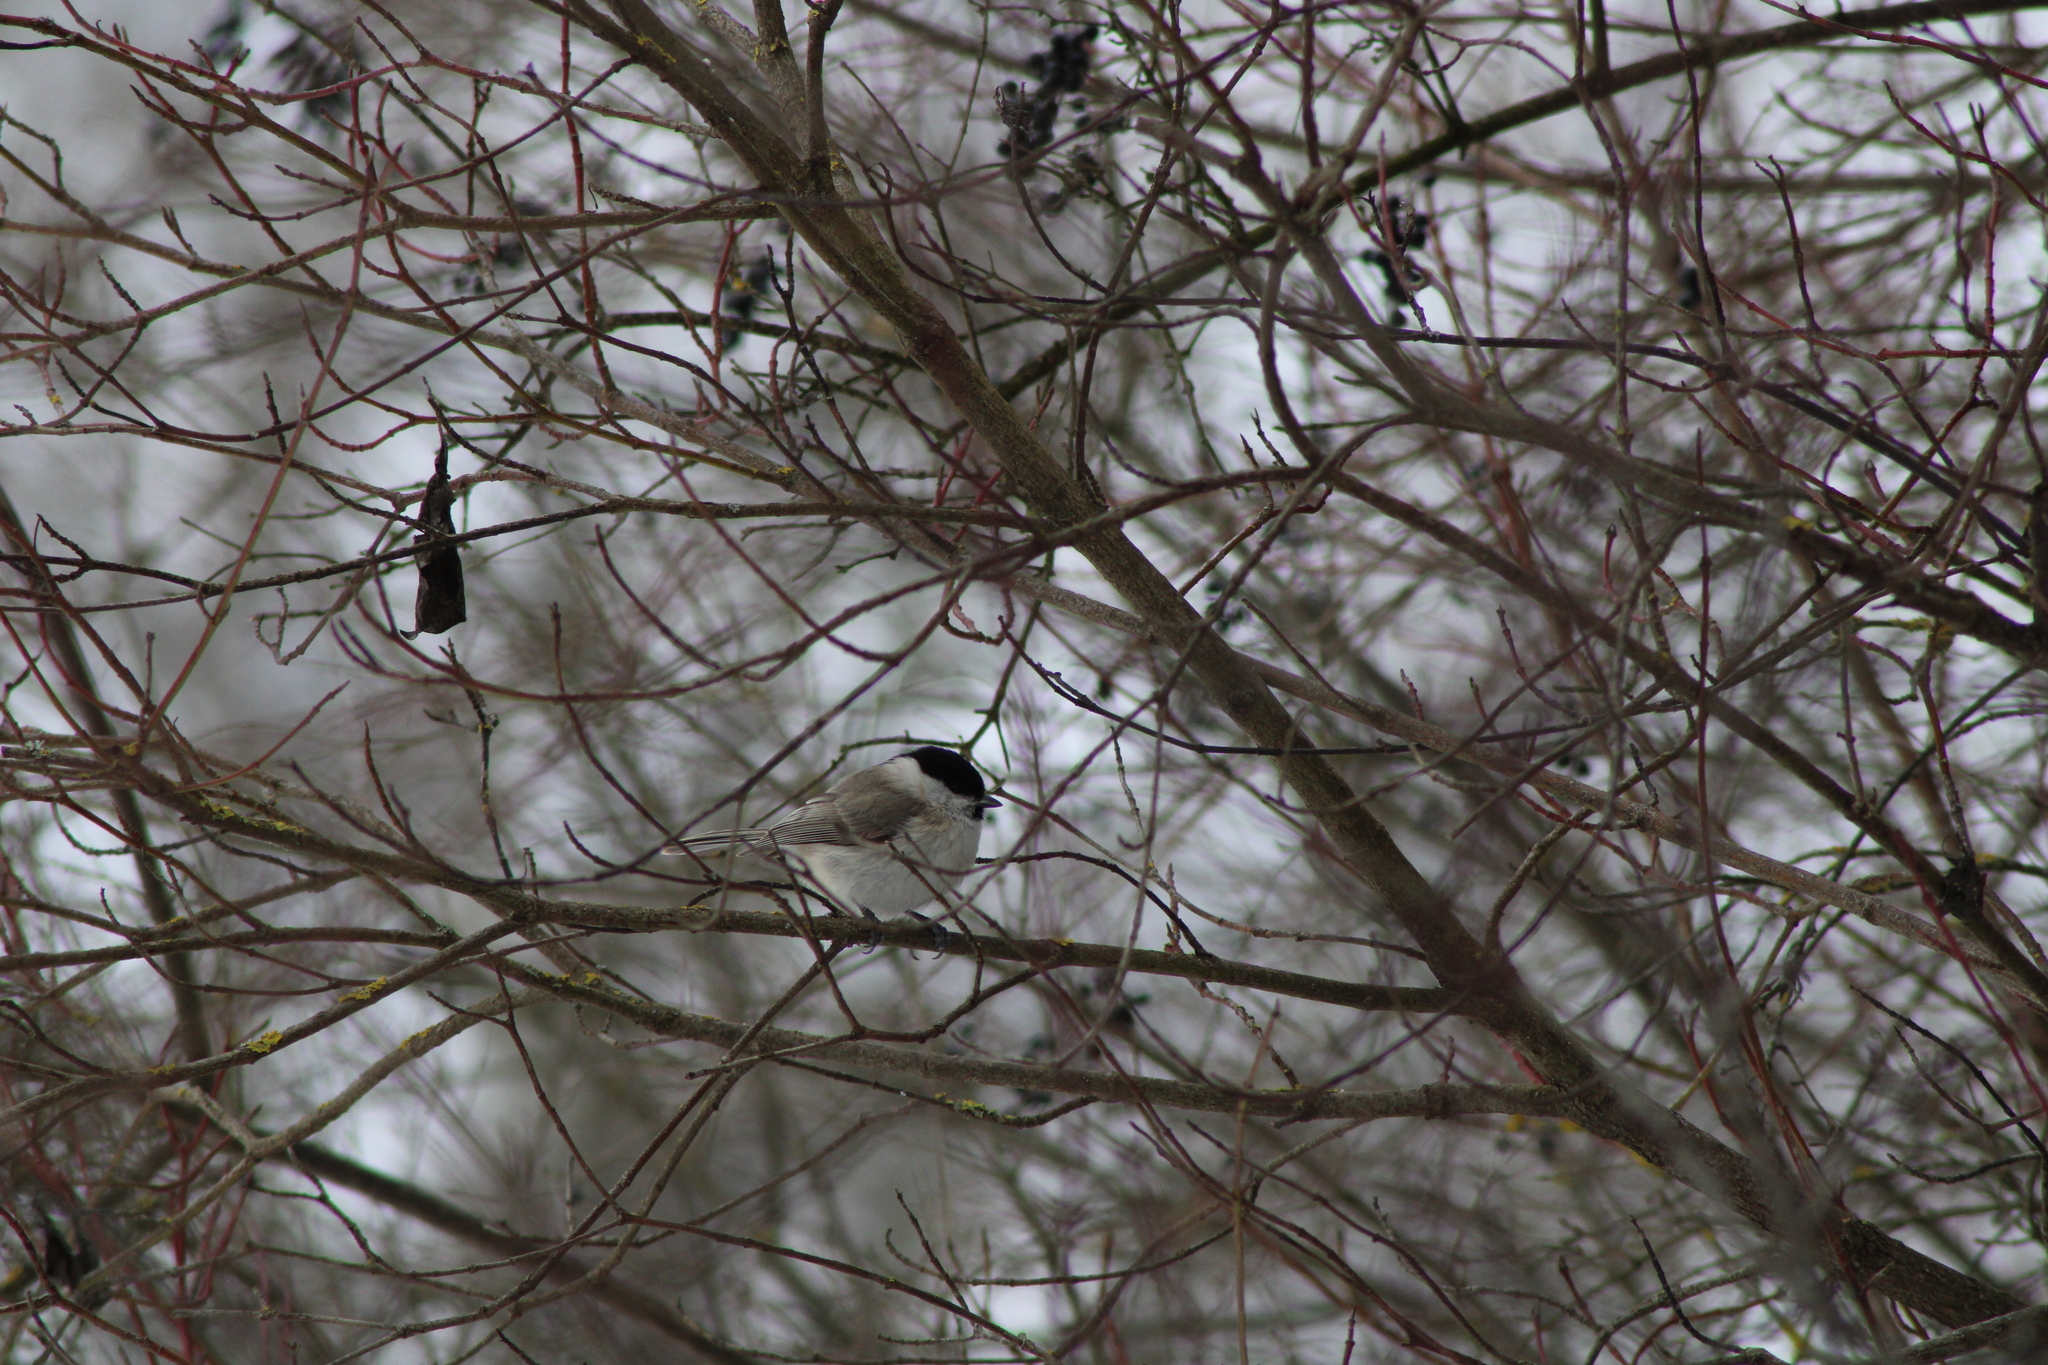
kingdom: Animalia
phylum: Chordata
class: Aves
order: Passeriformes
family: Paridae
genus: Poecile
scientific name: Poecile palustris
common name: Marsh tit
